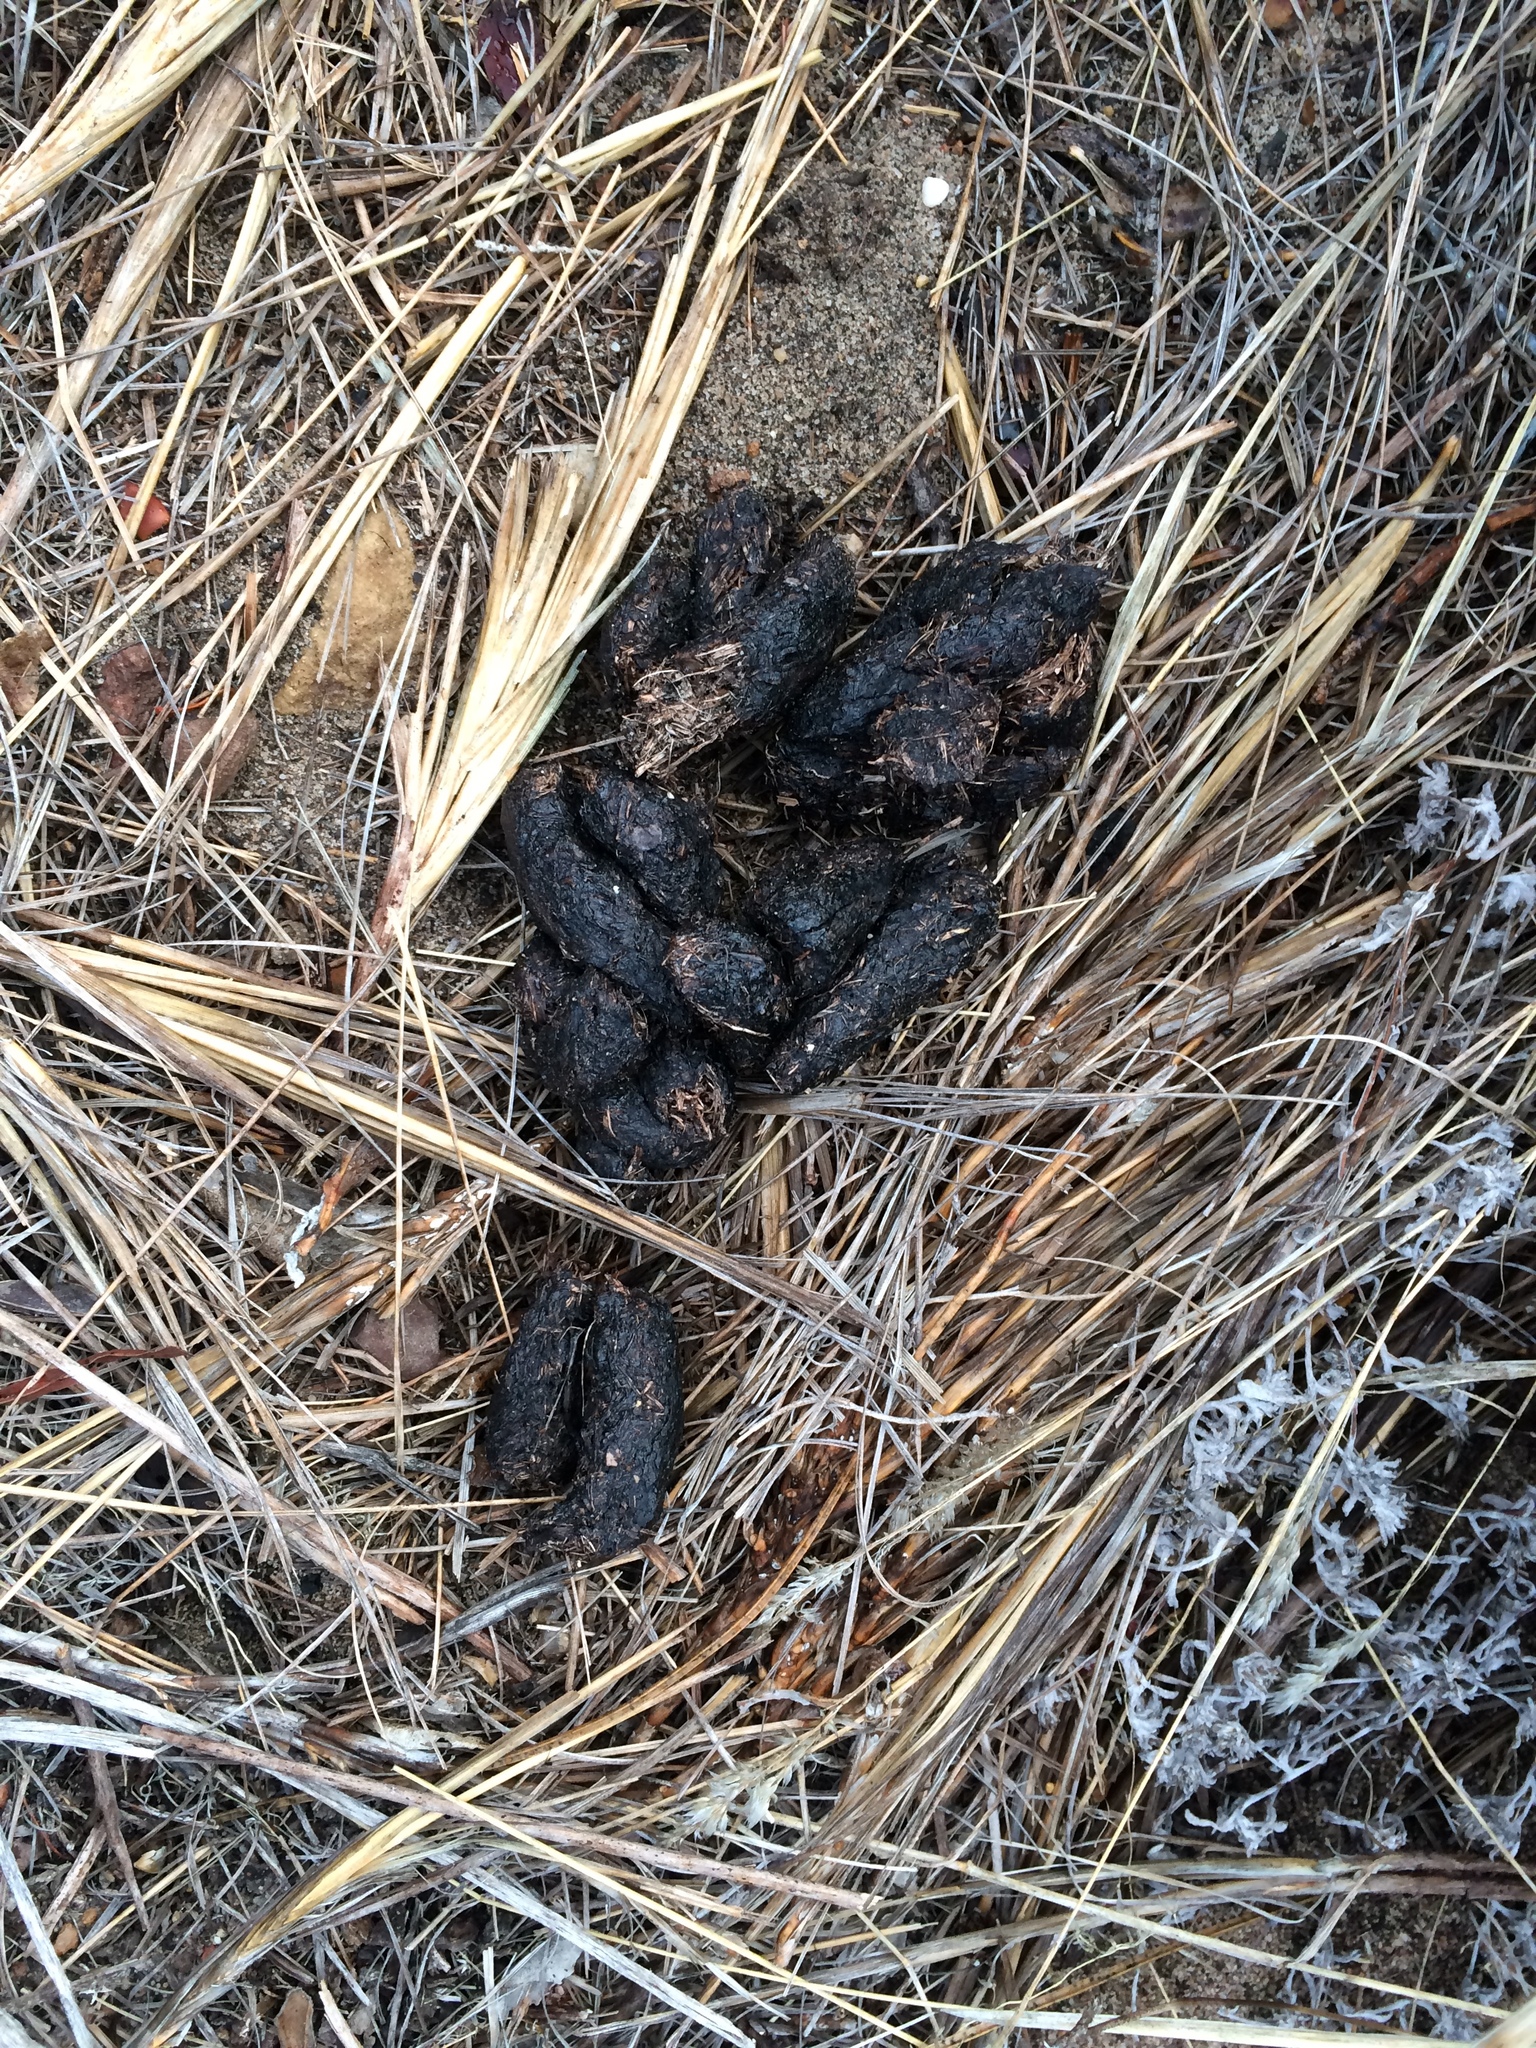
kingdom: Animalia
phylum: Chordata
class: Mammalia
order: Rodentia
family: Hystricidae
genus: Hystrix
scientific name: Hystrix africaeaustralis
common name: Cape porcupine
